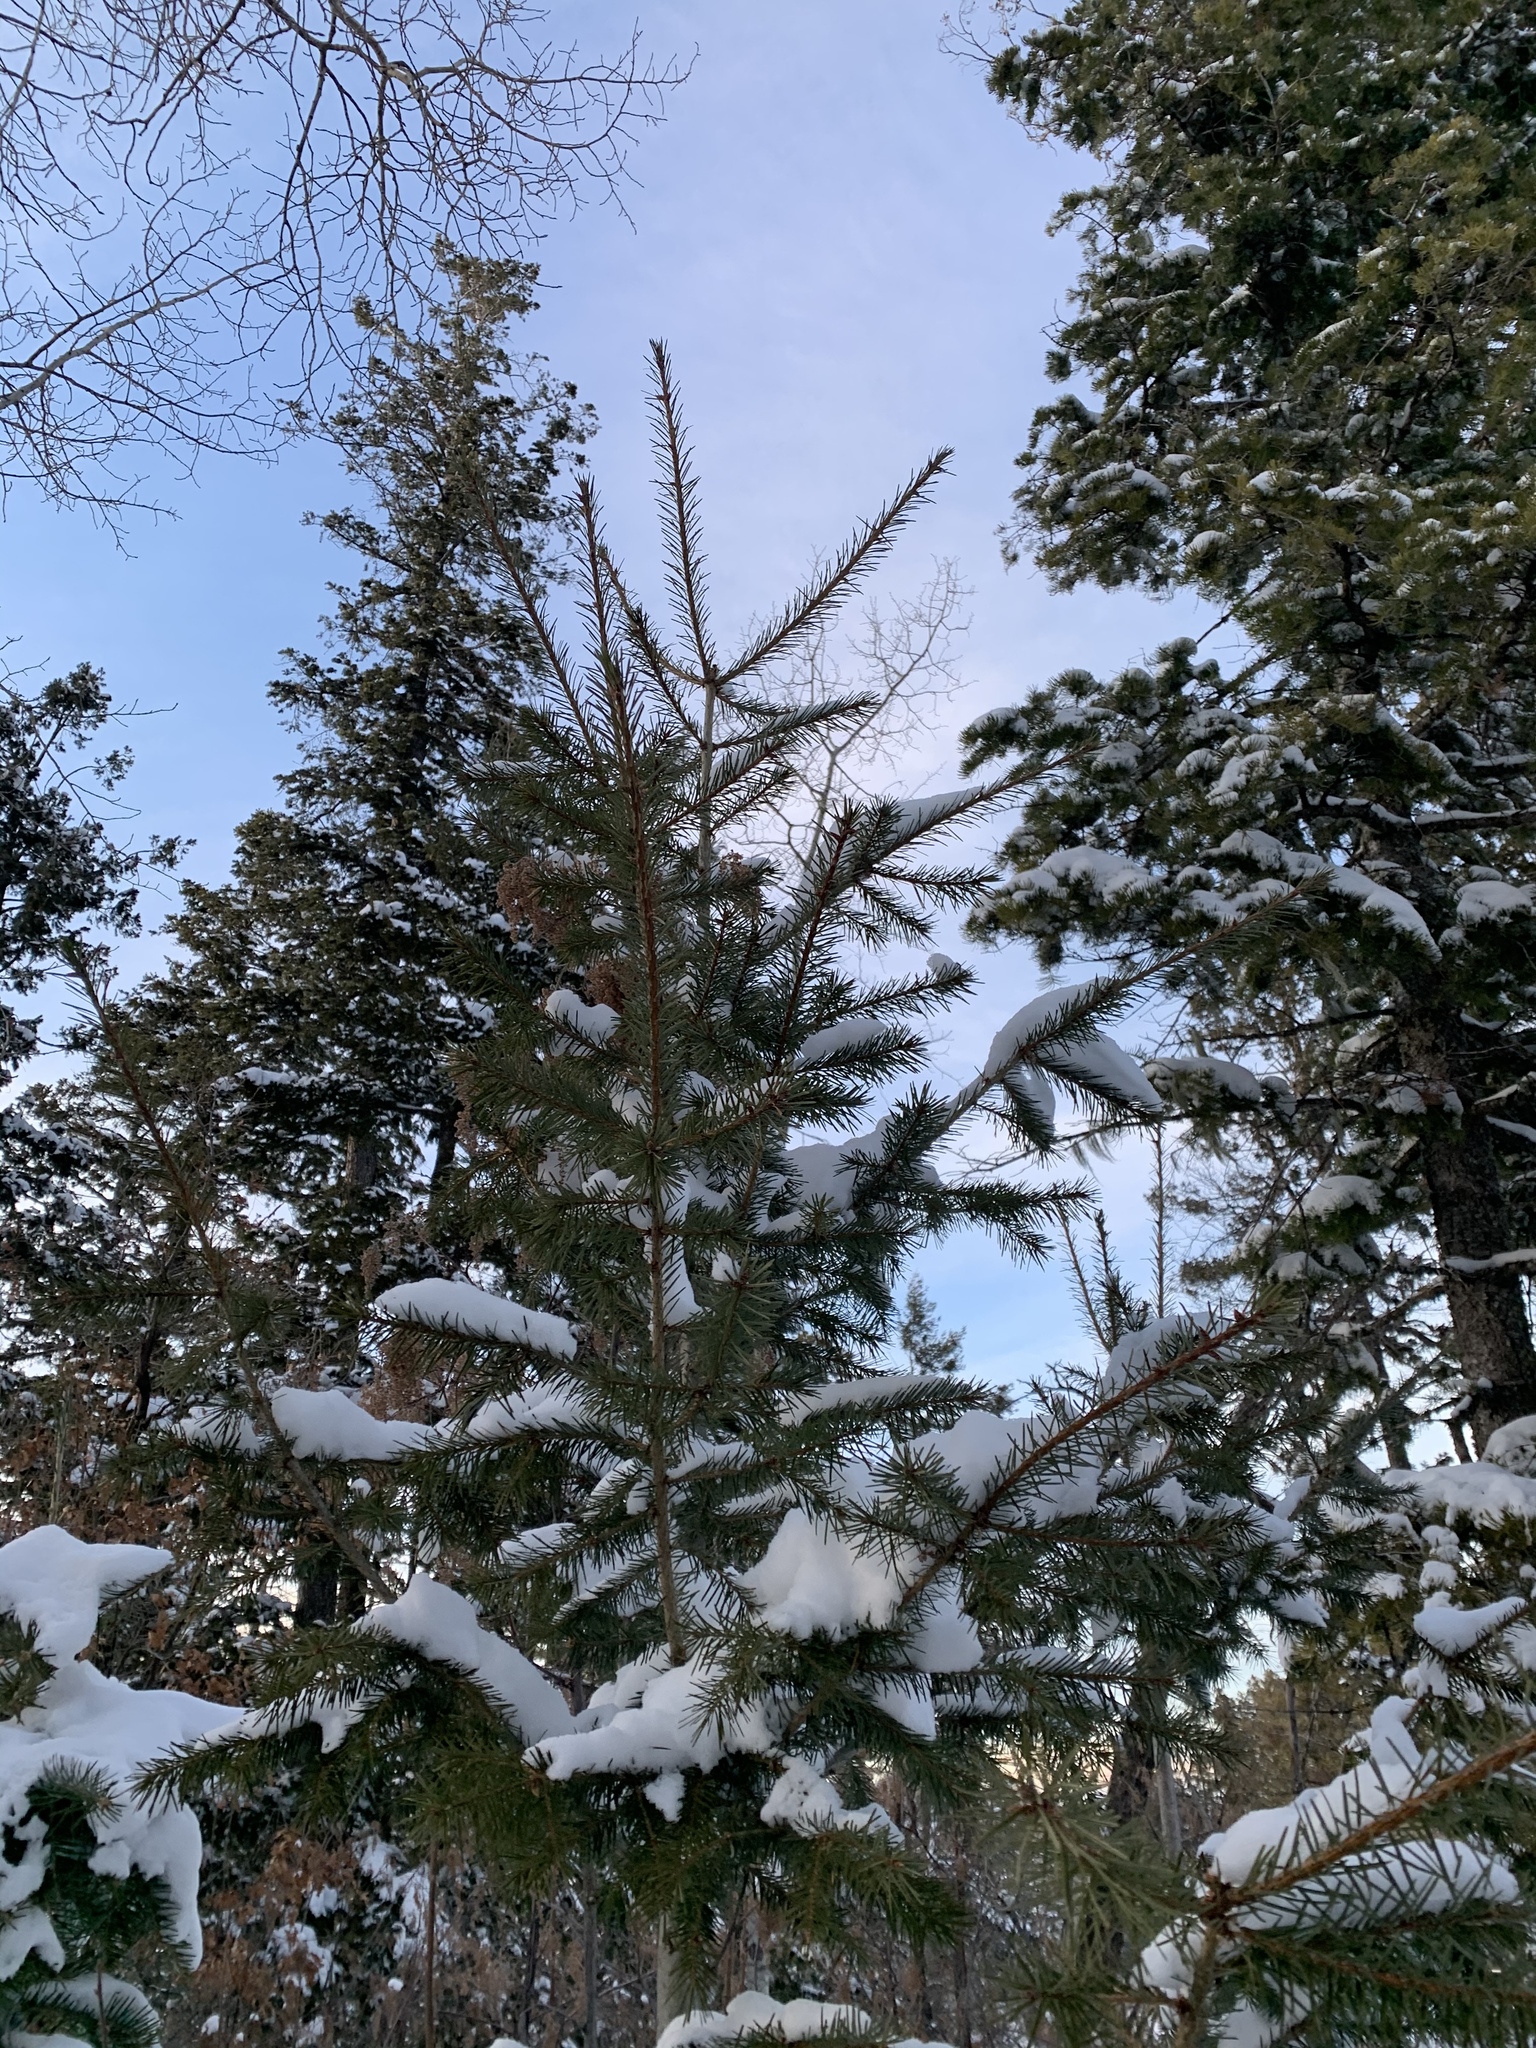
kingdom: Plantae
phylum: Tracheophyta
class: Pinopsida
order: Pinales
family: Pinaceae
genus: Picea
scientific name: Picea engelmannii
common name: Engelmann spruce
